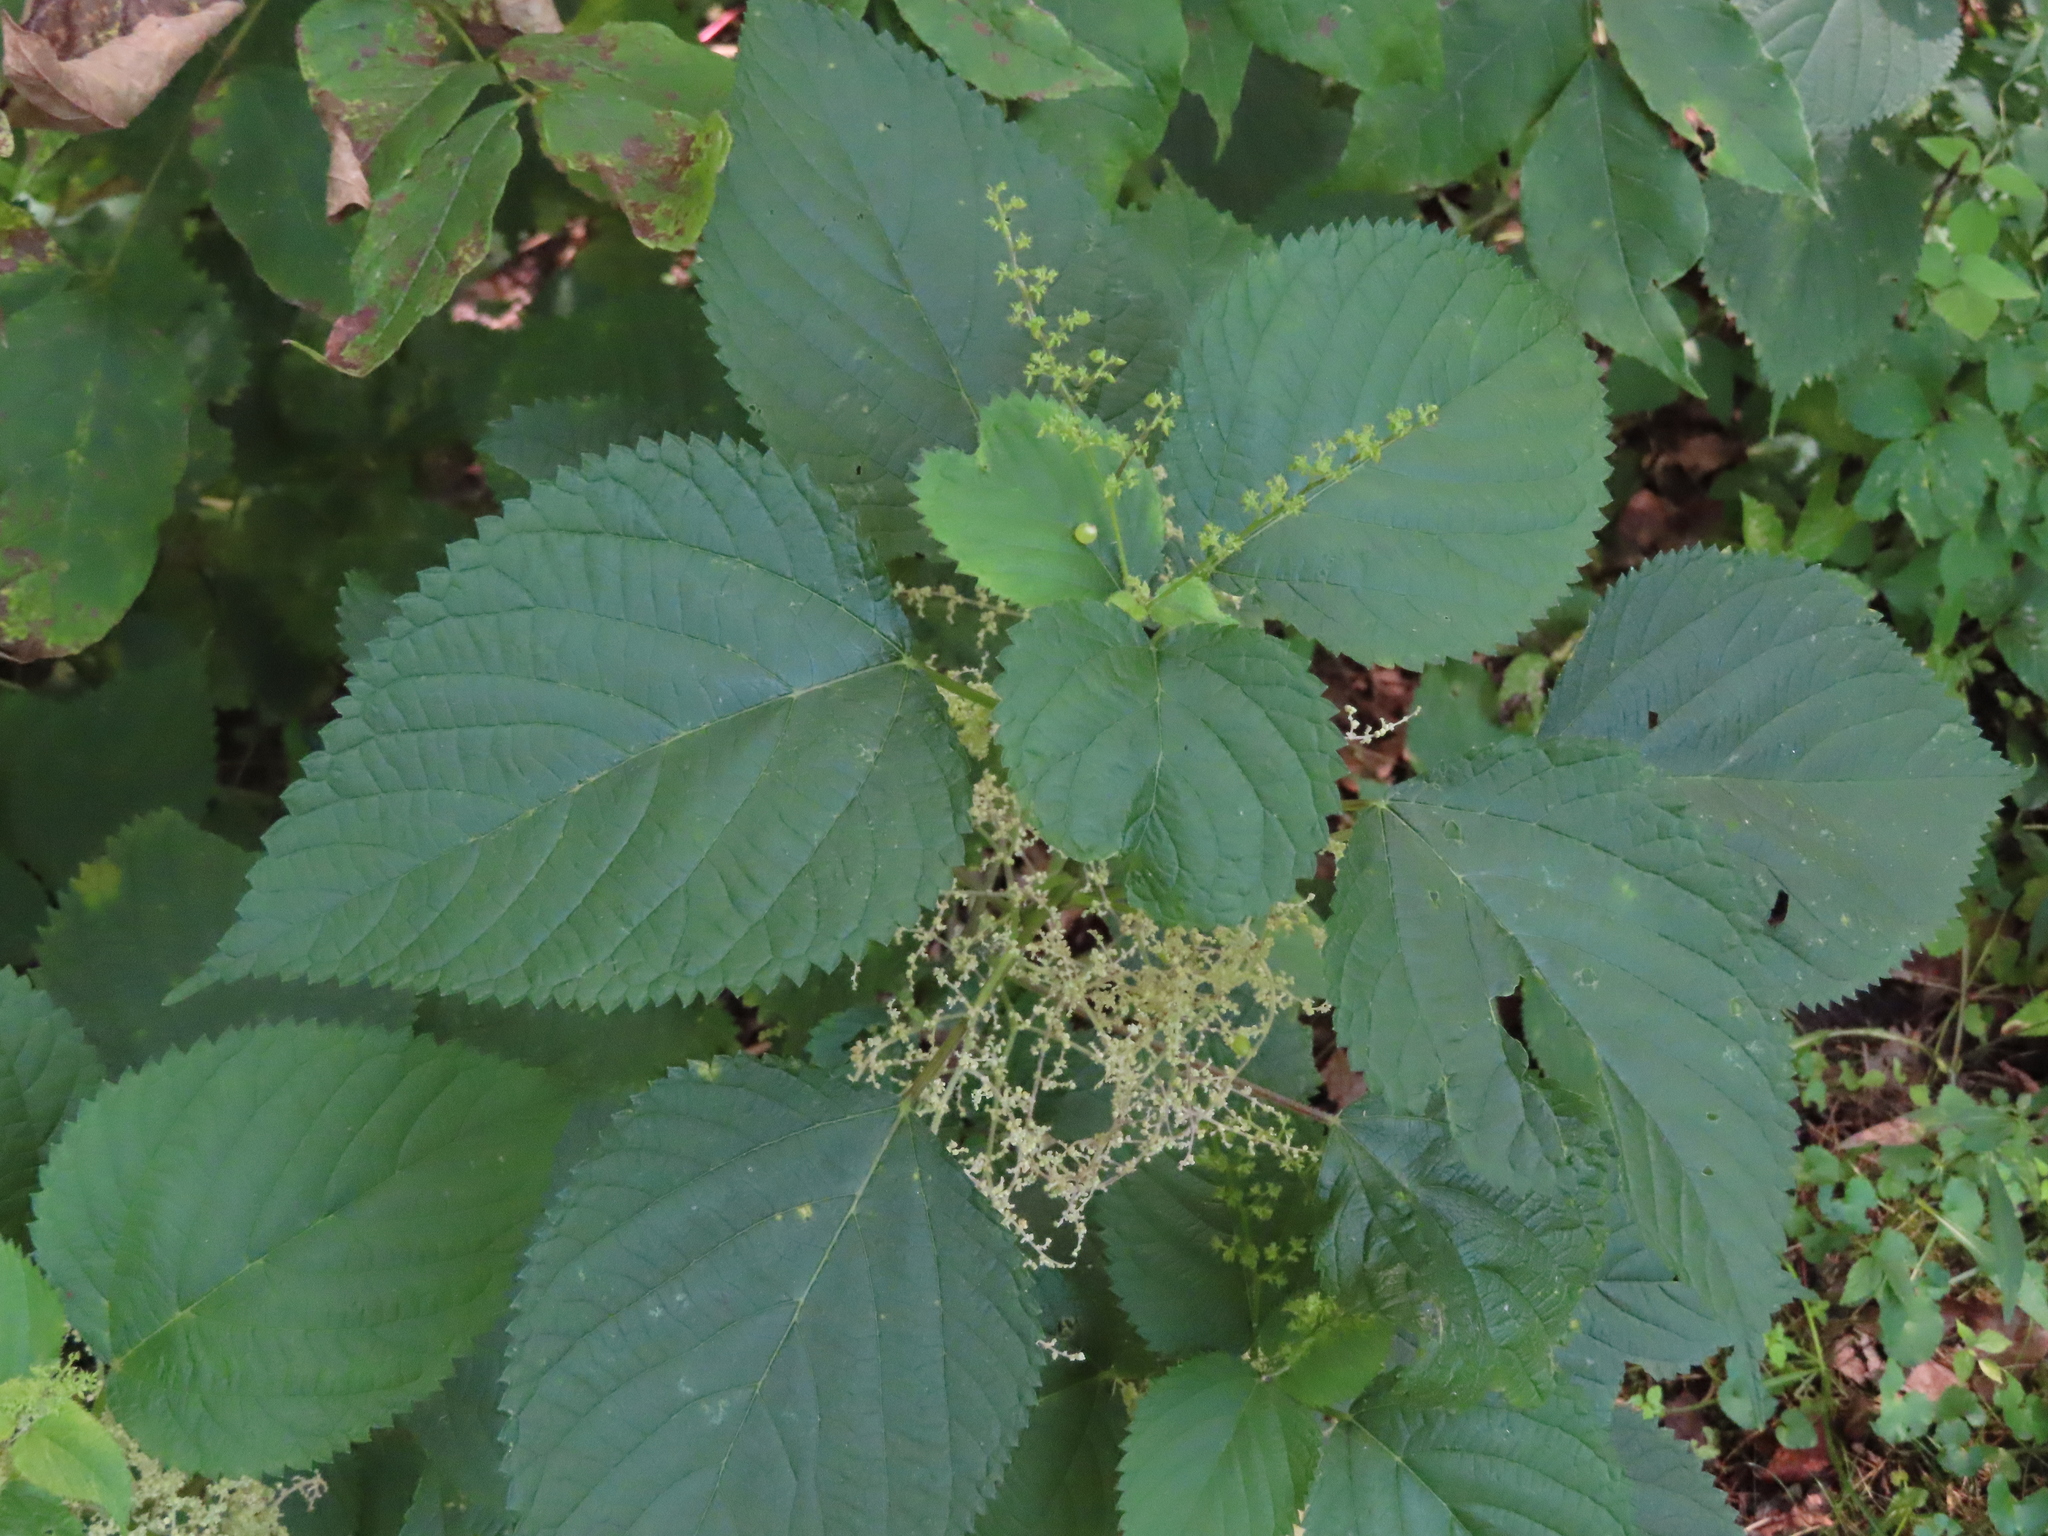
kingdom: Plantae
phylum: Tracheophyta
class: Magnoliopsida
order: Rosales
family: Urticaceae
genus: Laportea
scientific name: Laportea canadensis
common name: Canada nettle
